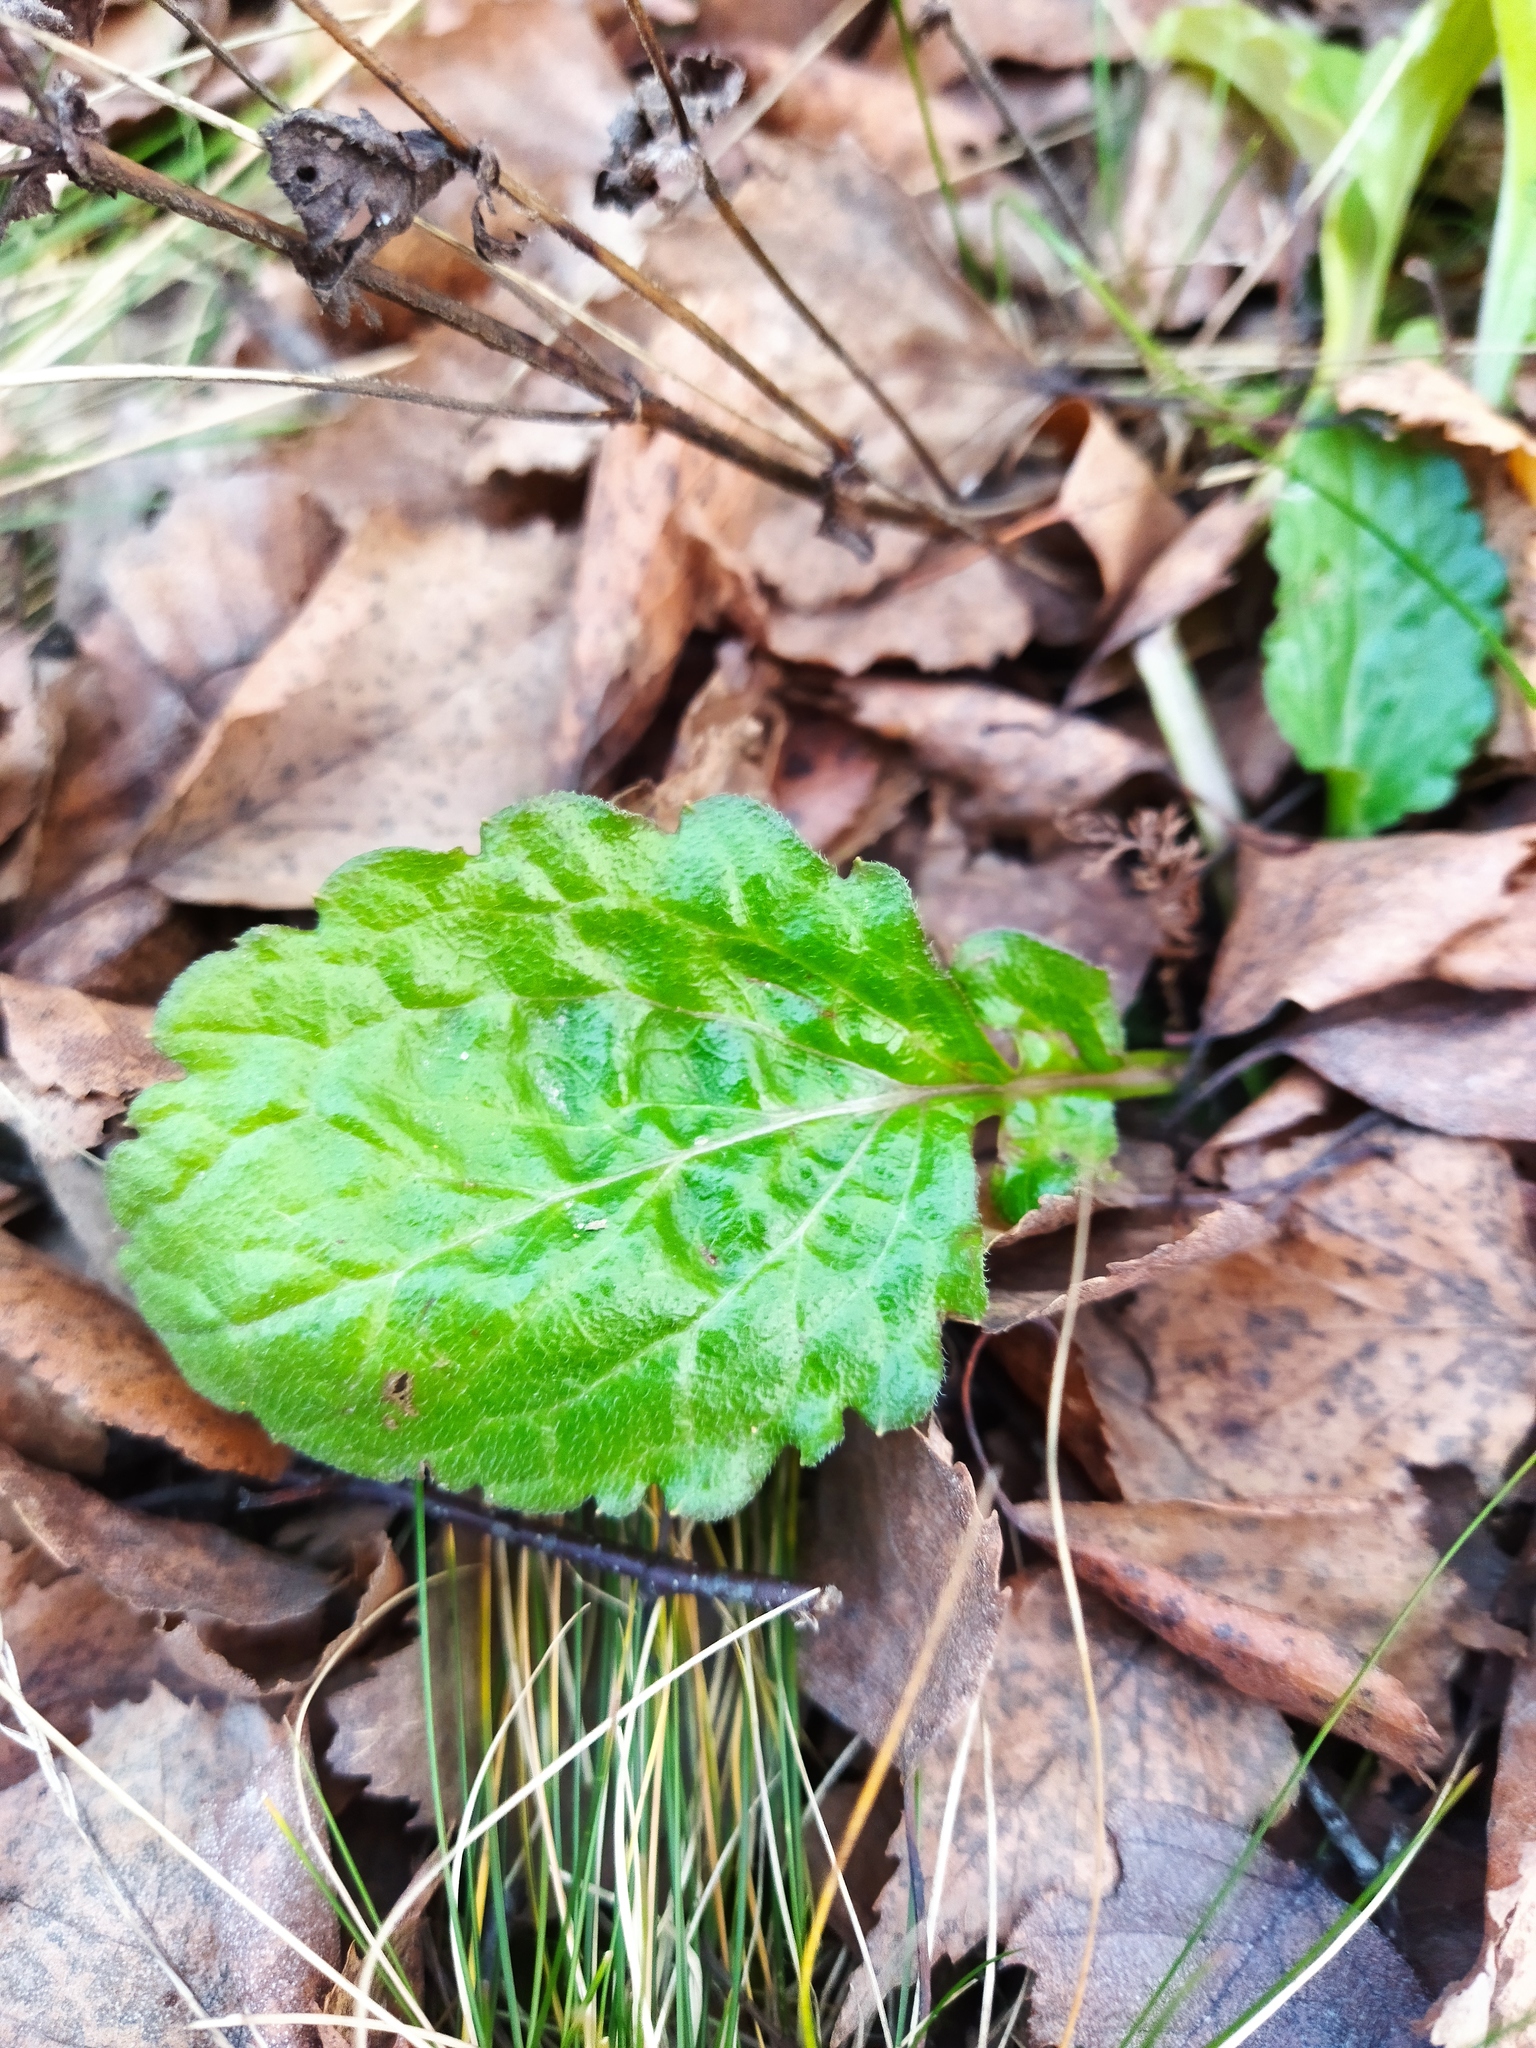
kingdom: Plantae
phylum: Tracheophyta
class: Magnoliopsida
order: Lamiales
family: Lamiaceae
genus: Ajuga
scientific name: Ajuga reptans
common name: Bugle
